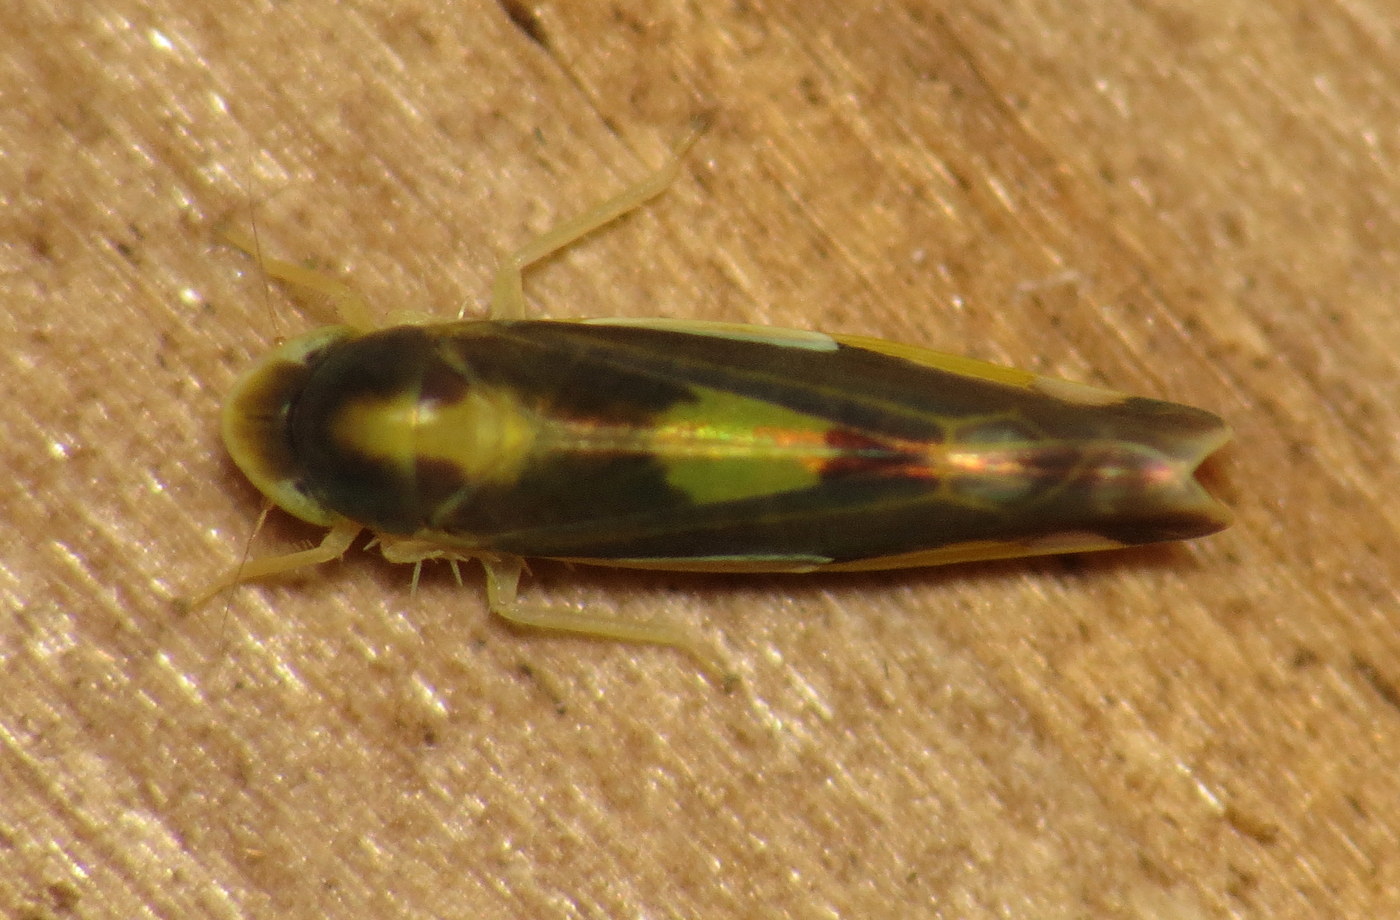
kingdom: Animalia
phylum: Arthropoda
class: Insecta
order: Hemiptera
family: Cicadellidae
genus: Eupteryx
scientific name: Eupteryx flavoscuta
